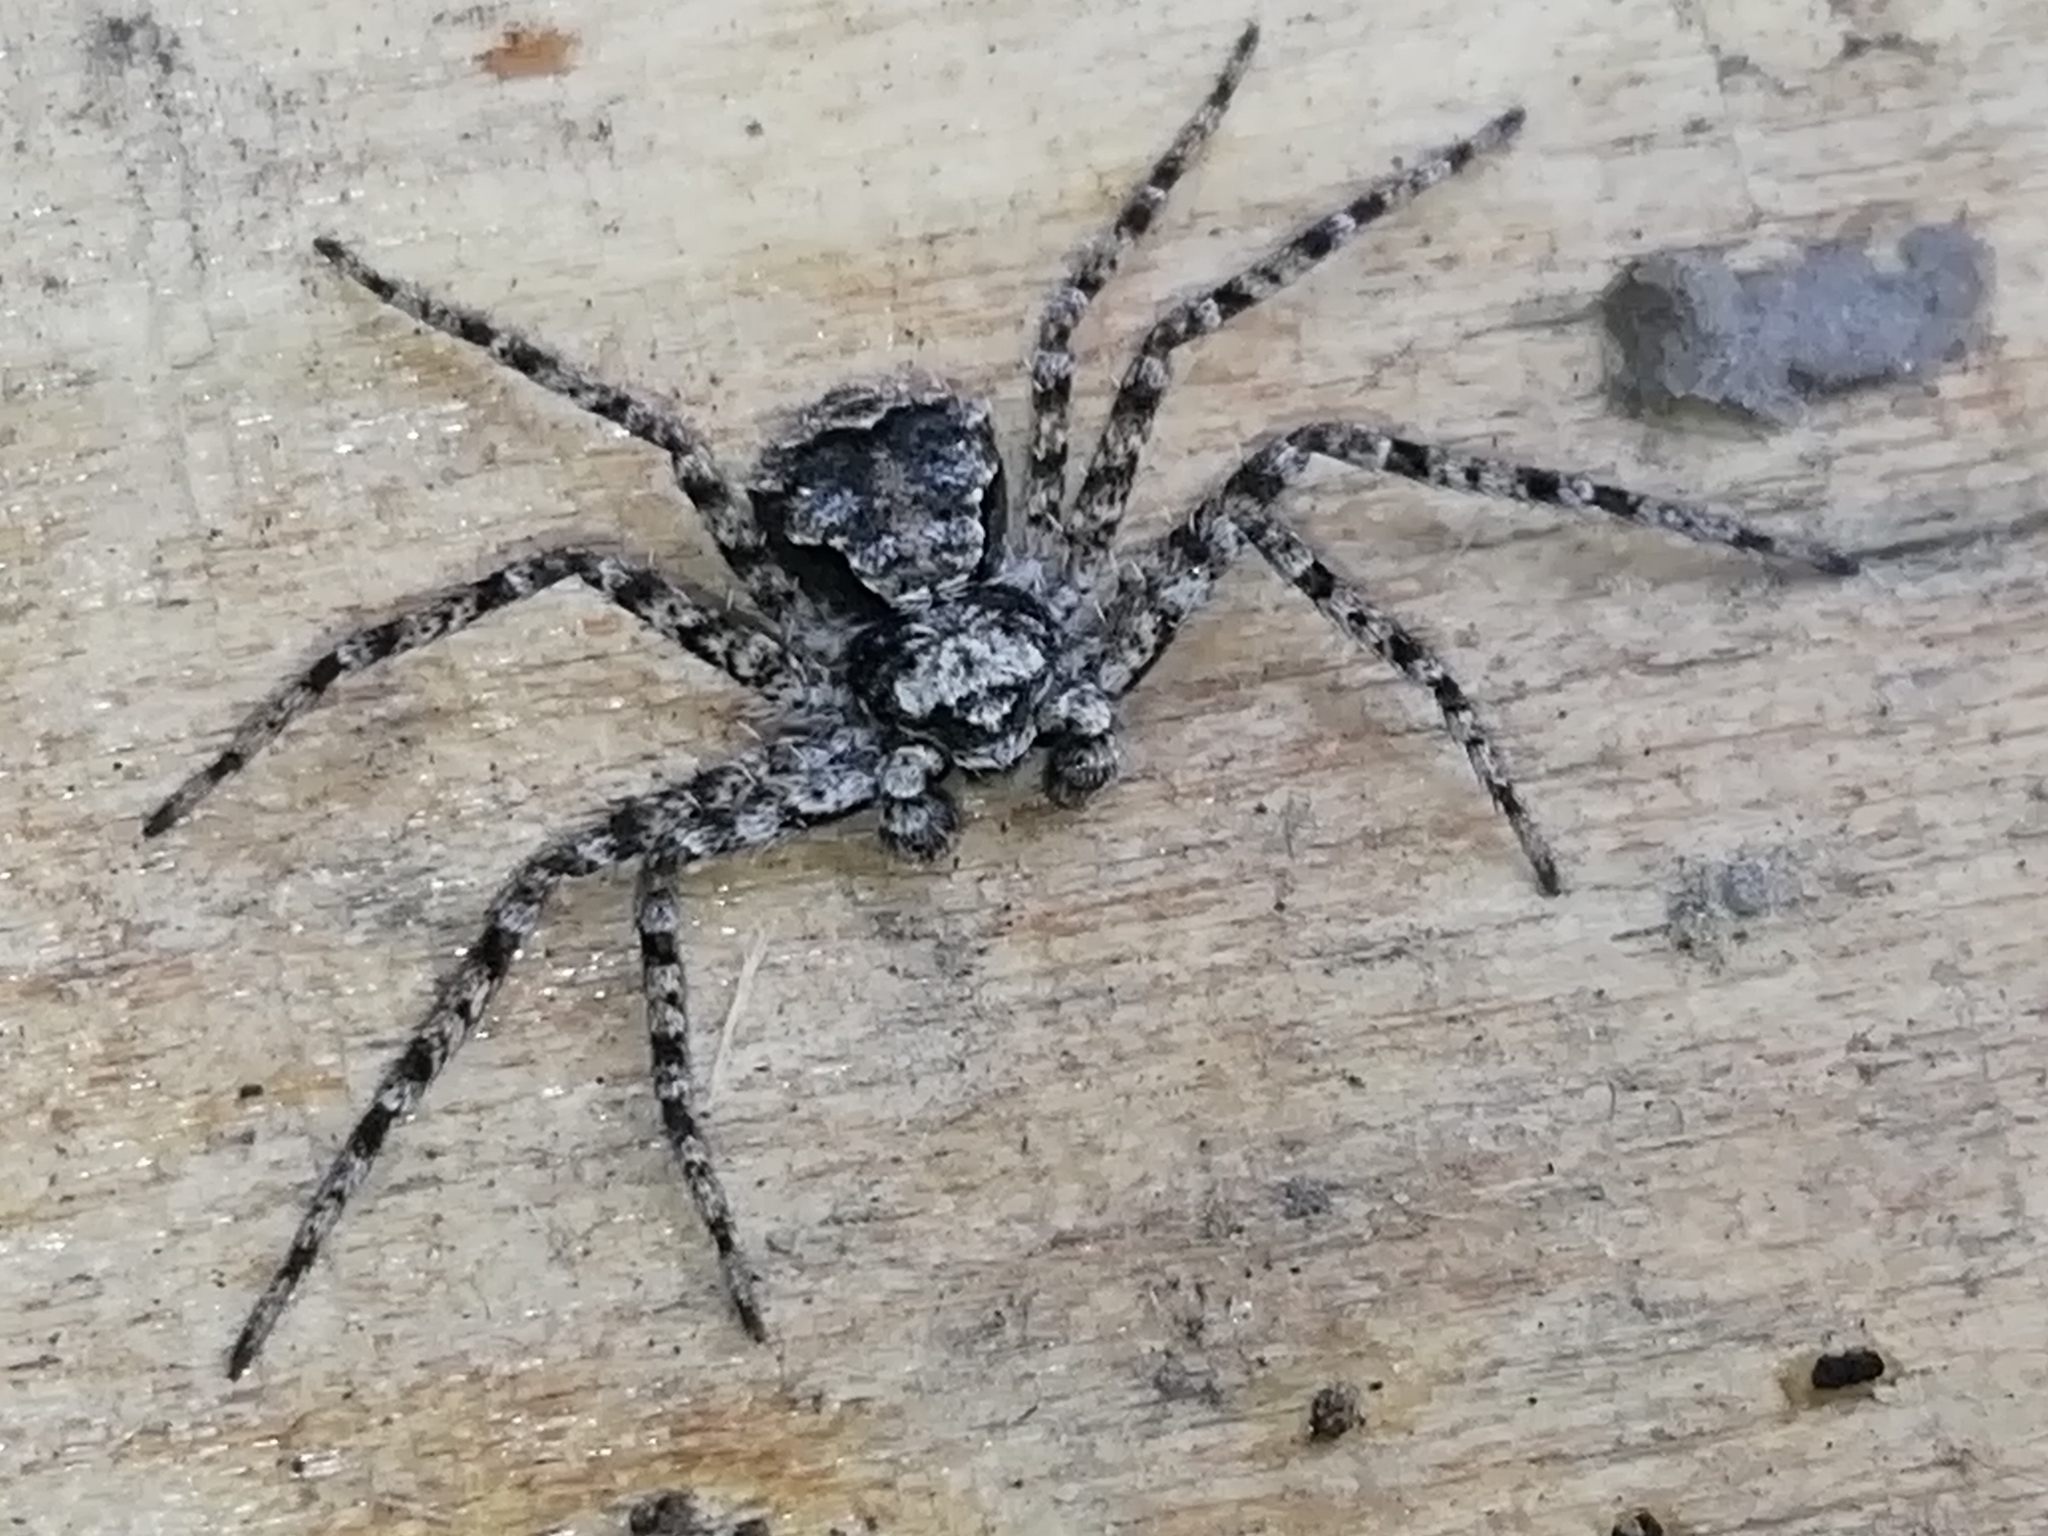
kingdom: Animalia
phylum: Arthropoda
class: Arachnida
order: Araneae
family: Philodromidae
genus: Philodromus
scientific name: Philodromus poecilus
